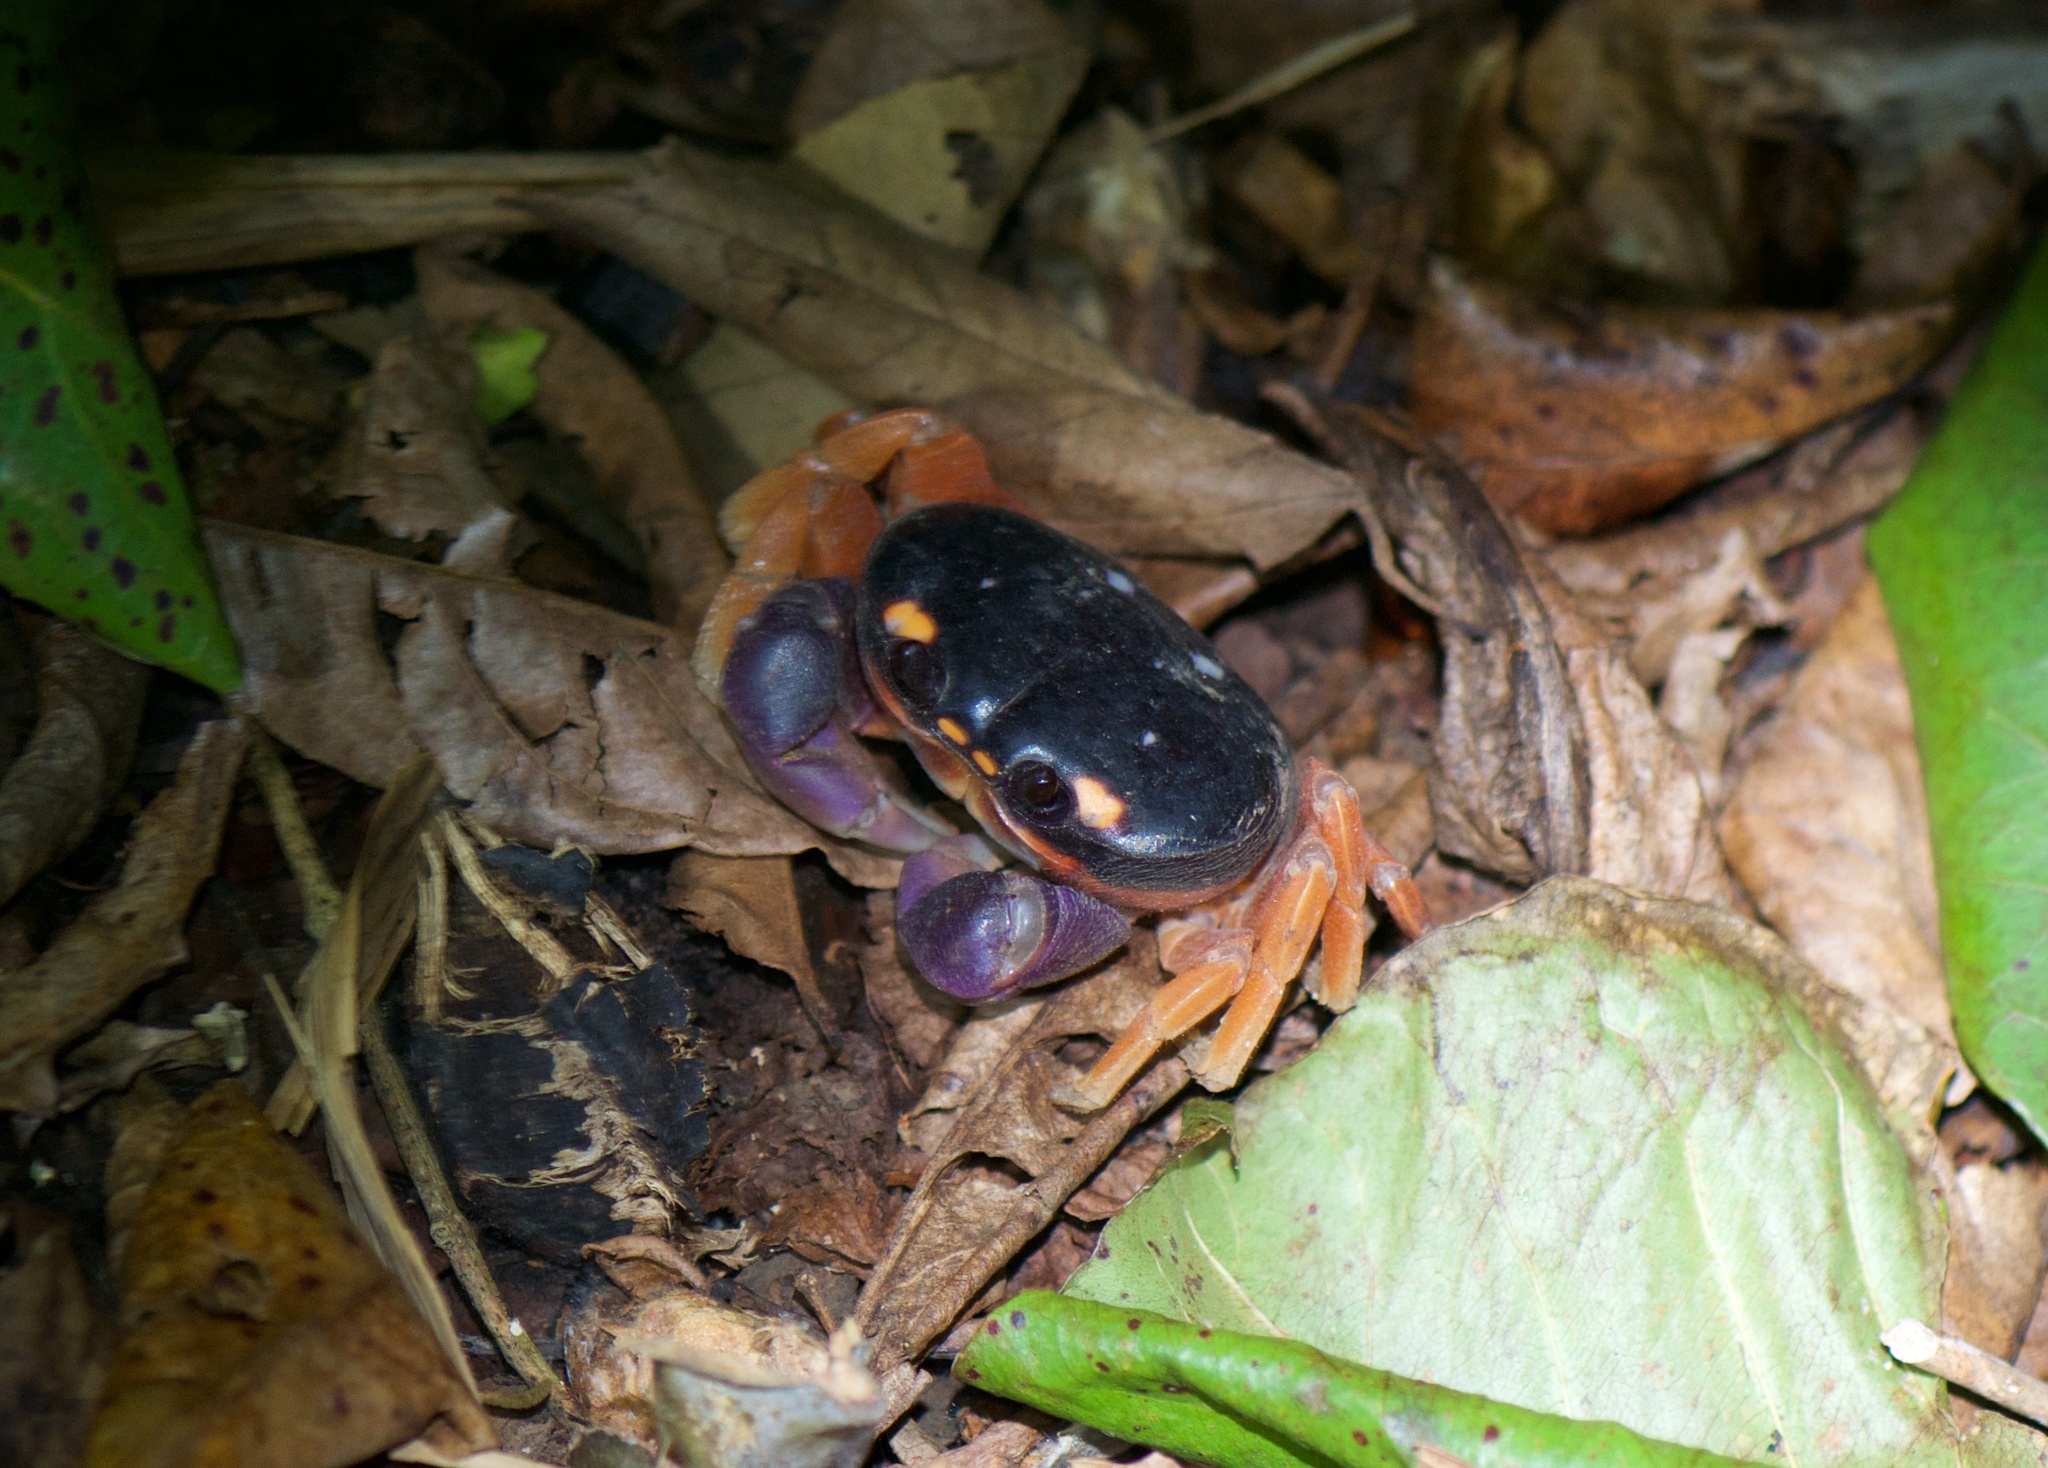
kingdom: Animalia
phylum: Arthropoda
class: Malacostraca
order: Decapoda
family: Gecarcinidae
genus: Gecarcinus
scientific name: Gecarcinus quadratus
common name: Halloween crab
